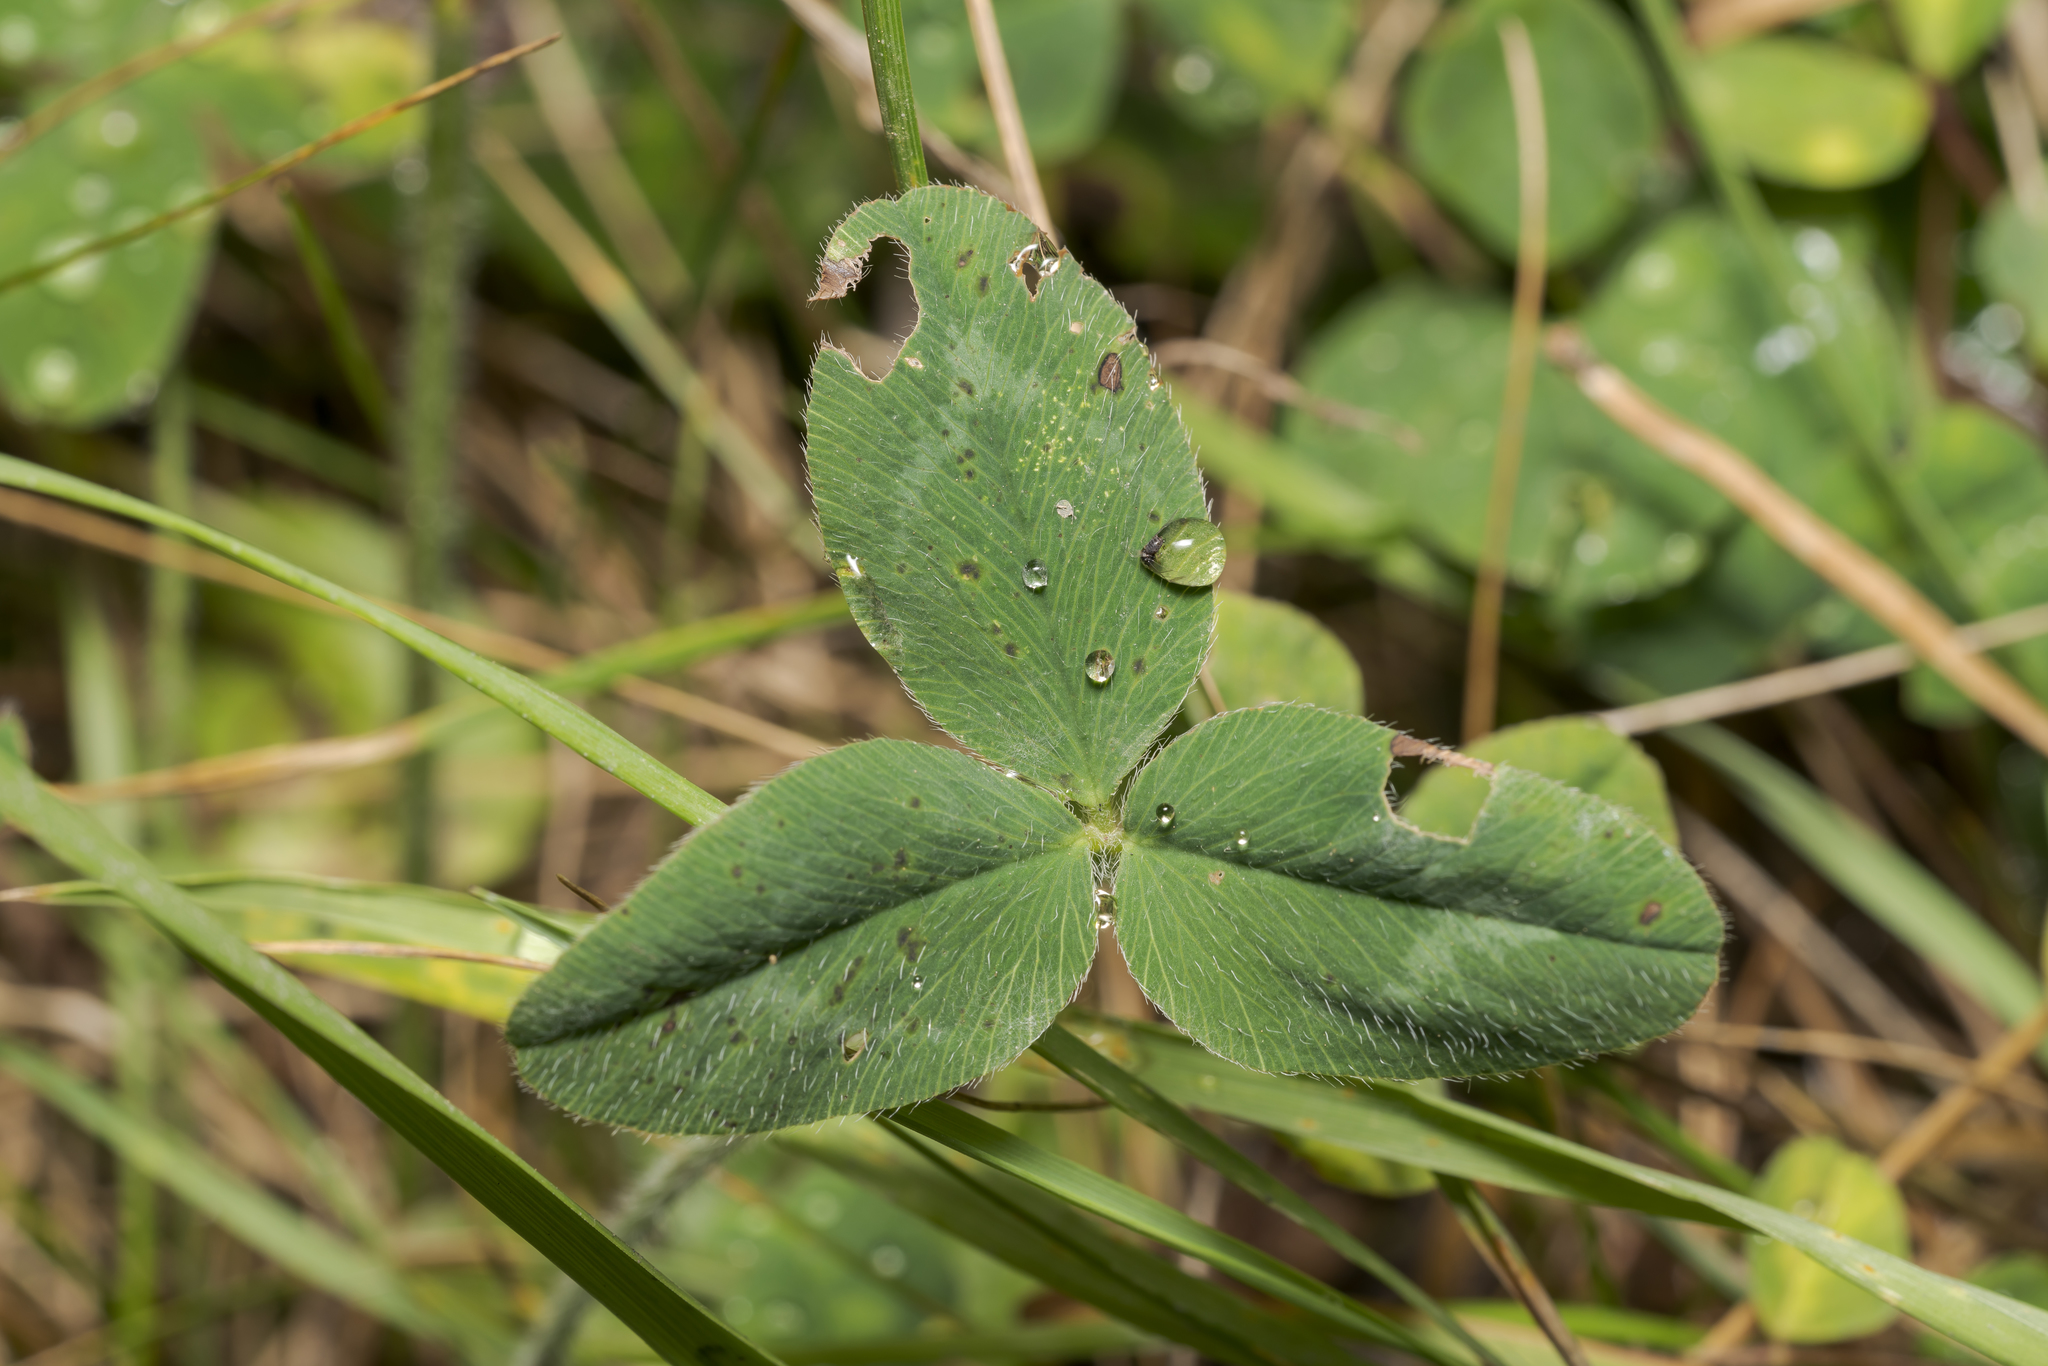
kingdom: Plantae
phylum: Tracheophyta
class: Magnoliopsida
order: Fabales
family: Fabaceae
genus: Trifolium
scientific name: Trifolium pratense
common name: Red clover
